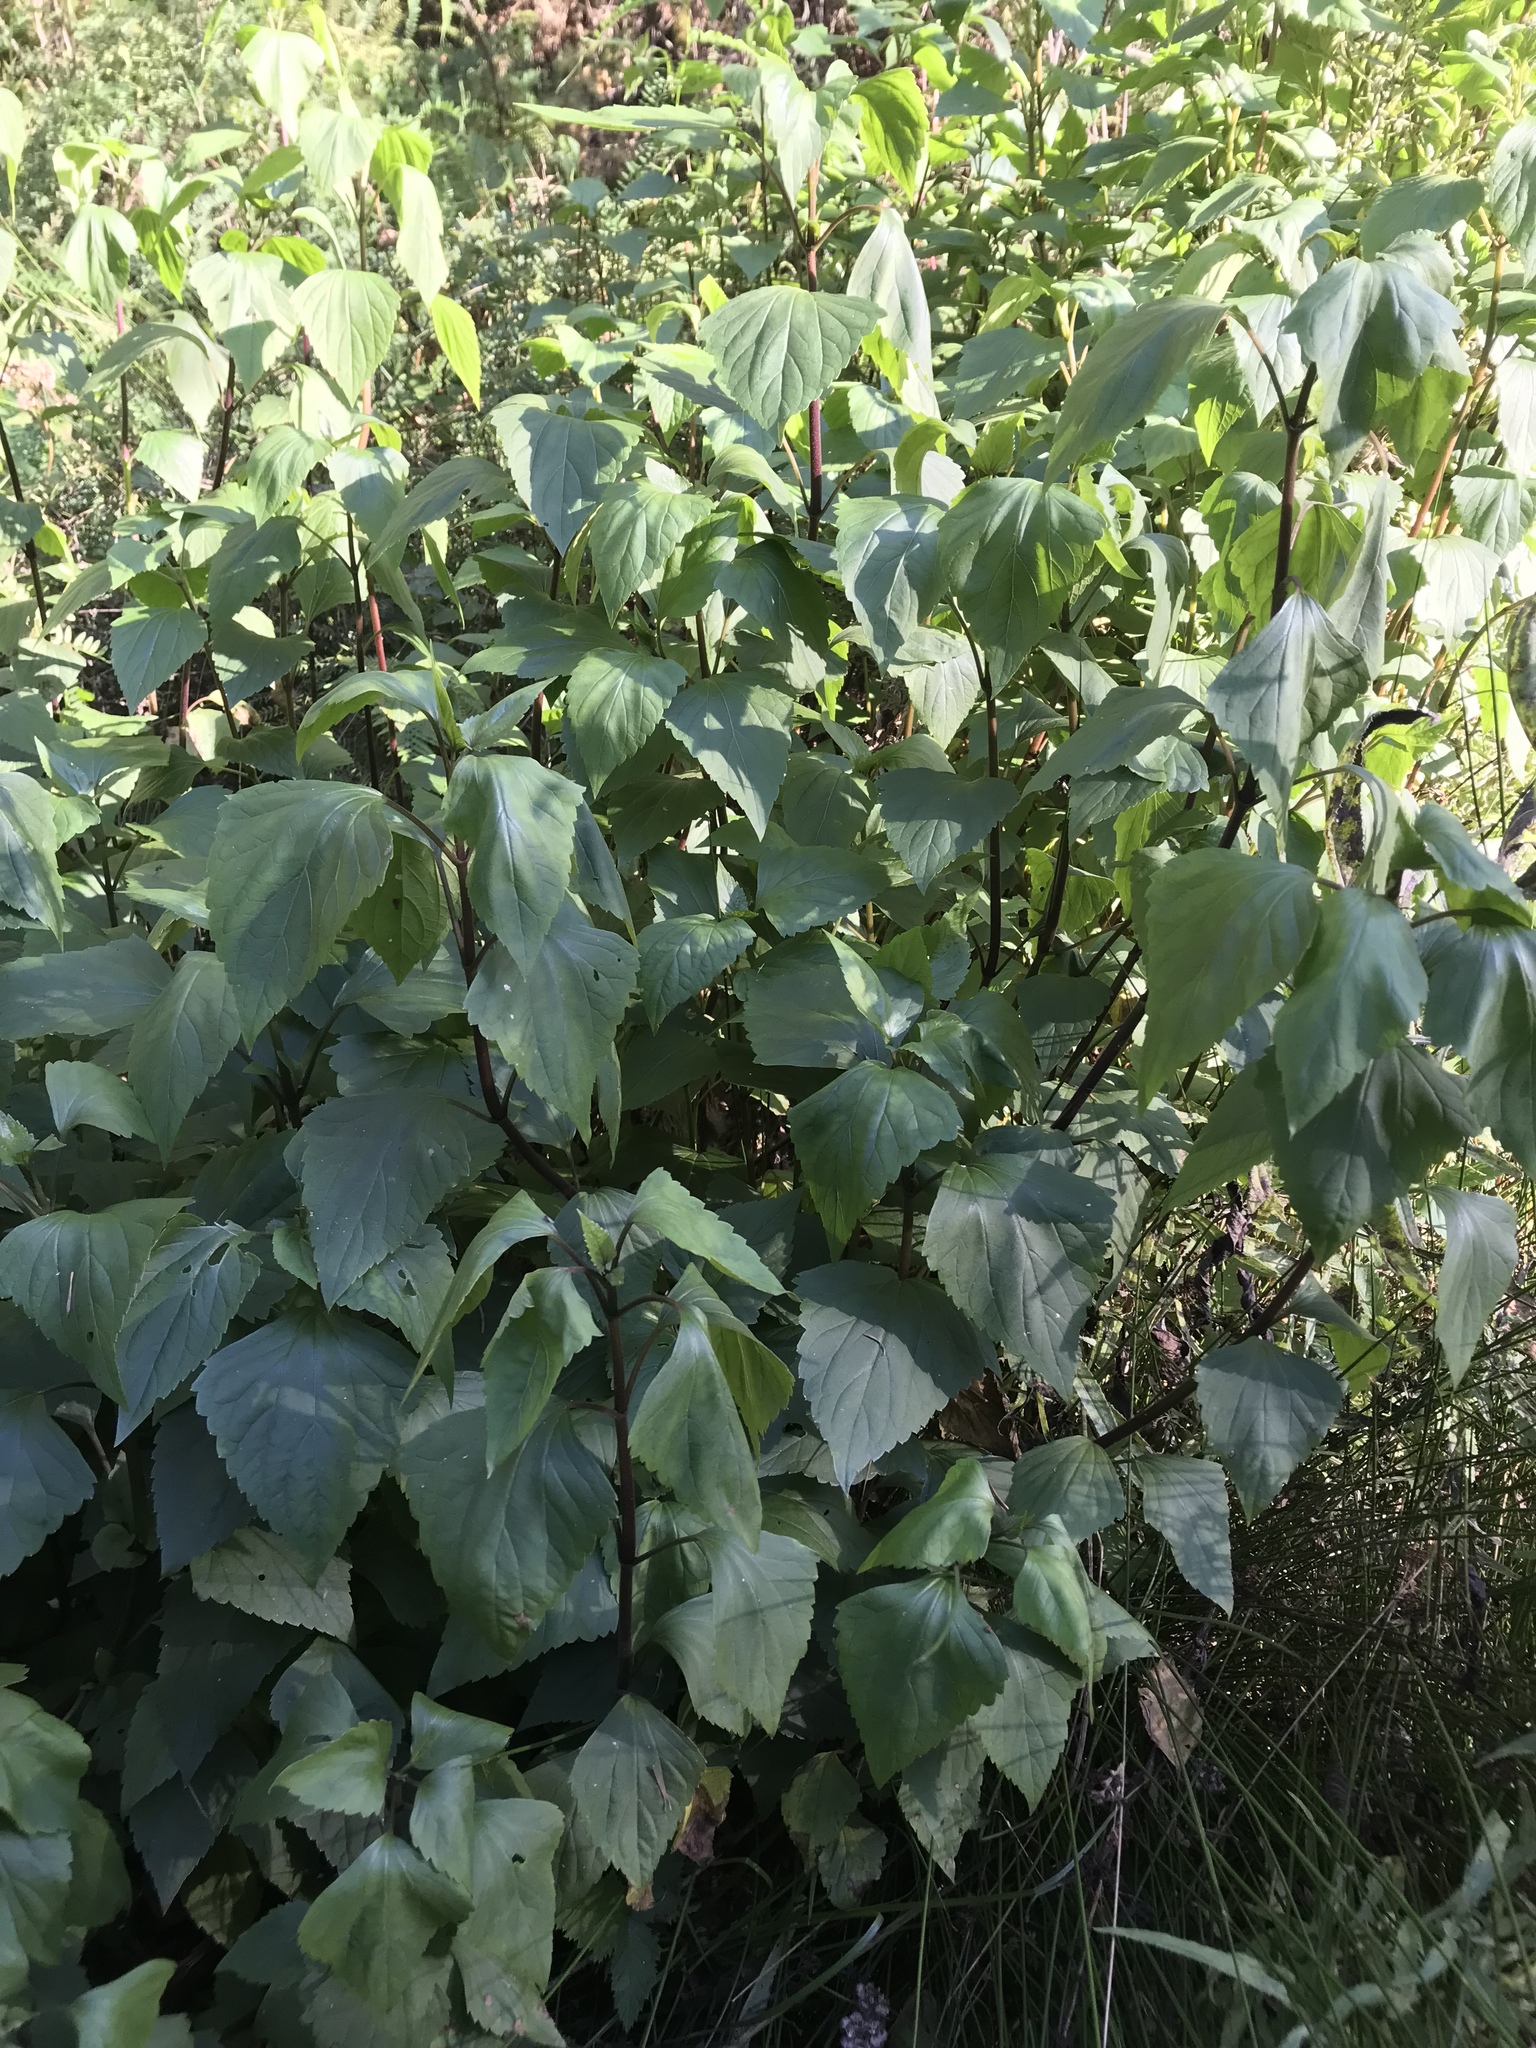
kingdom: Plantae
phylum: Tracheophyta
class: Magnoliopsida
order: Asterales
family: Asteraceae
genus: Ageratina
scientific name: Ageratina adenophora
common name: Sticky snakeroot
